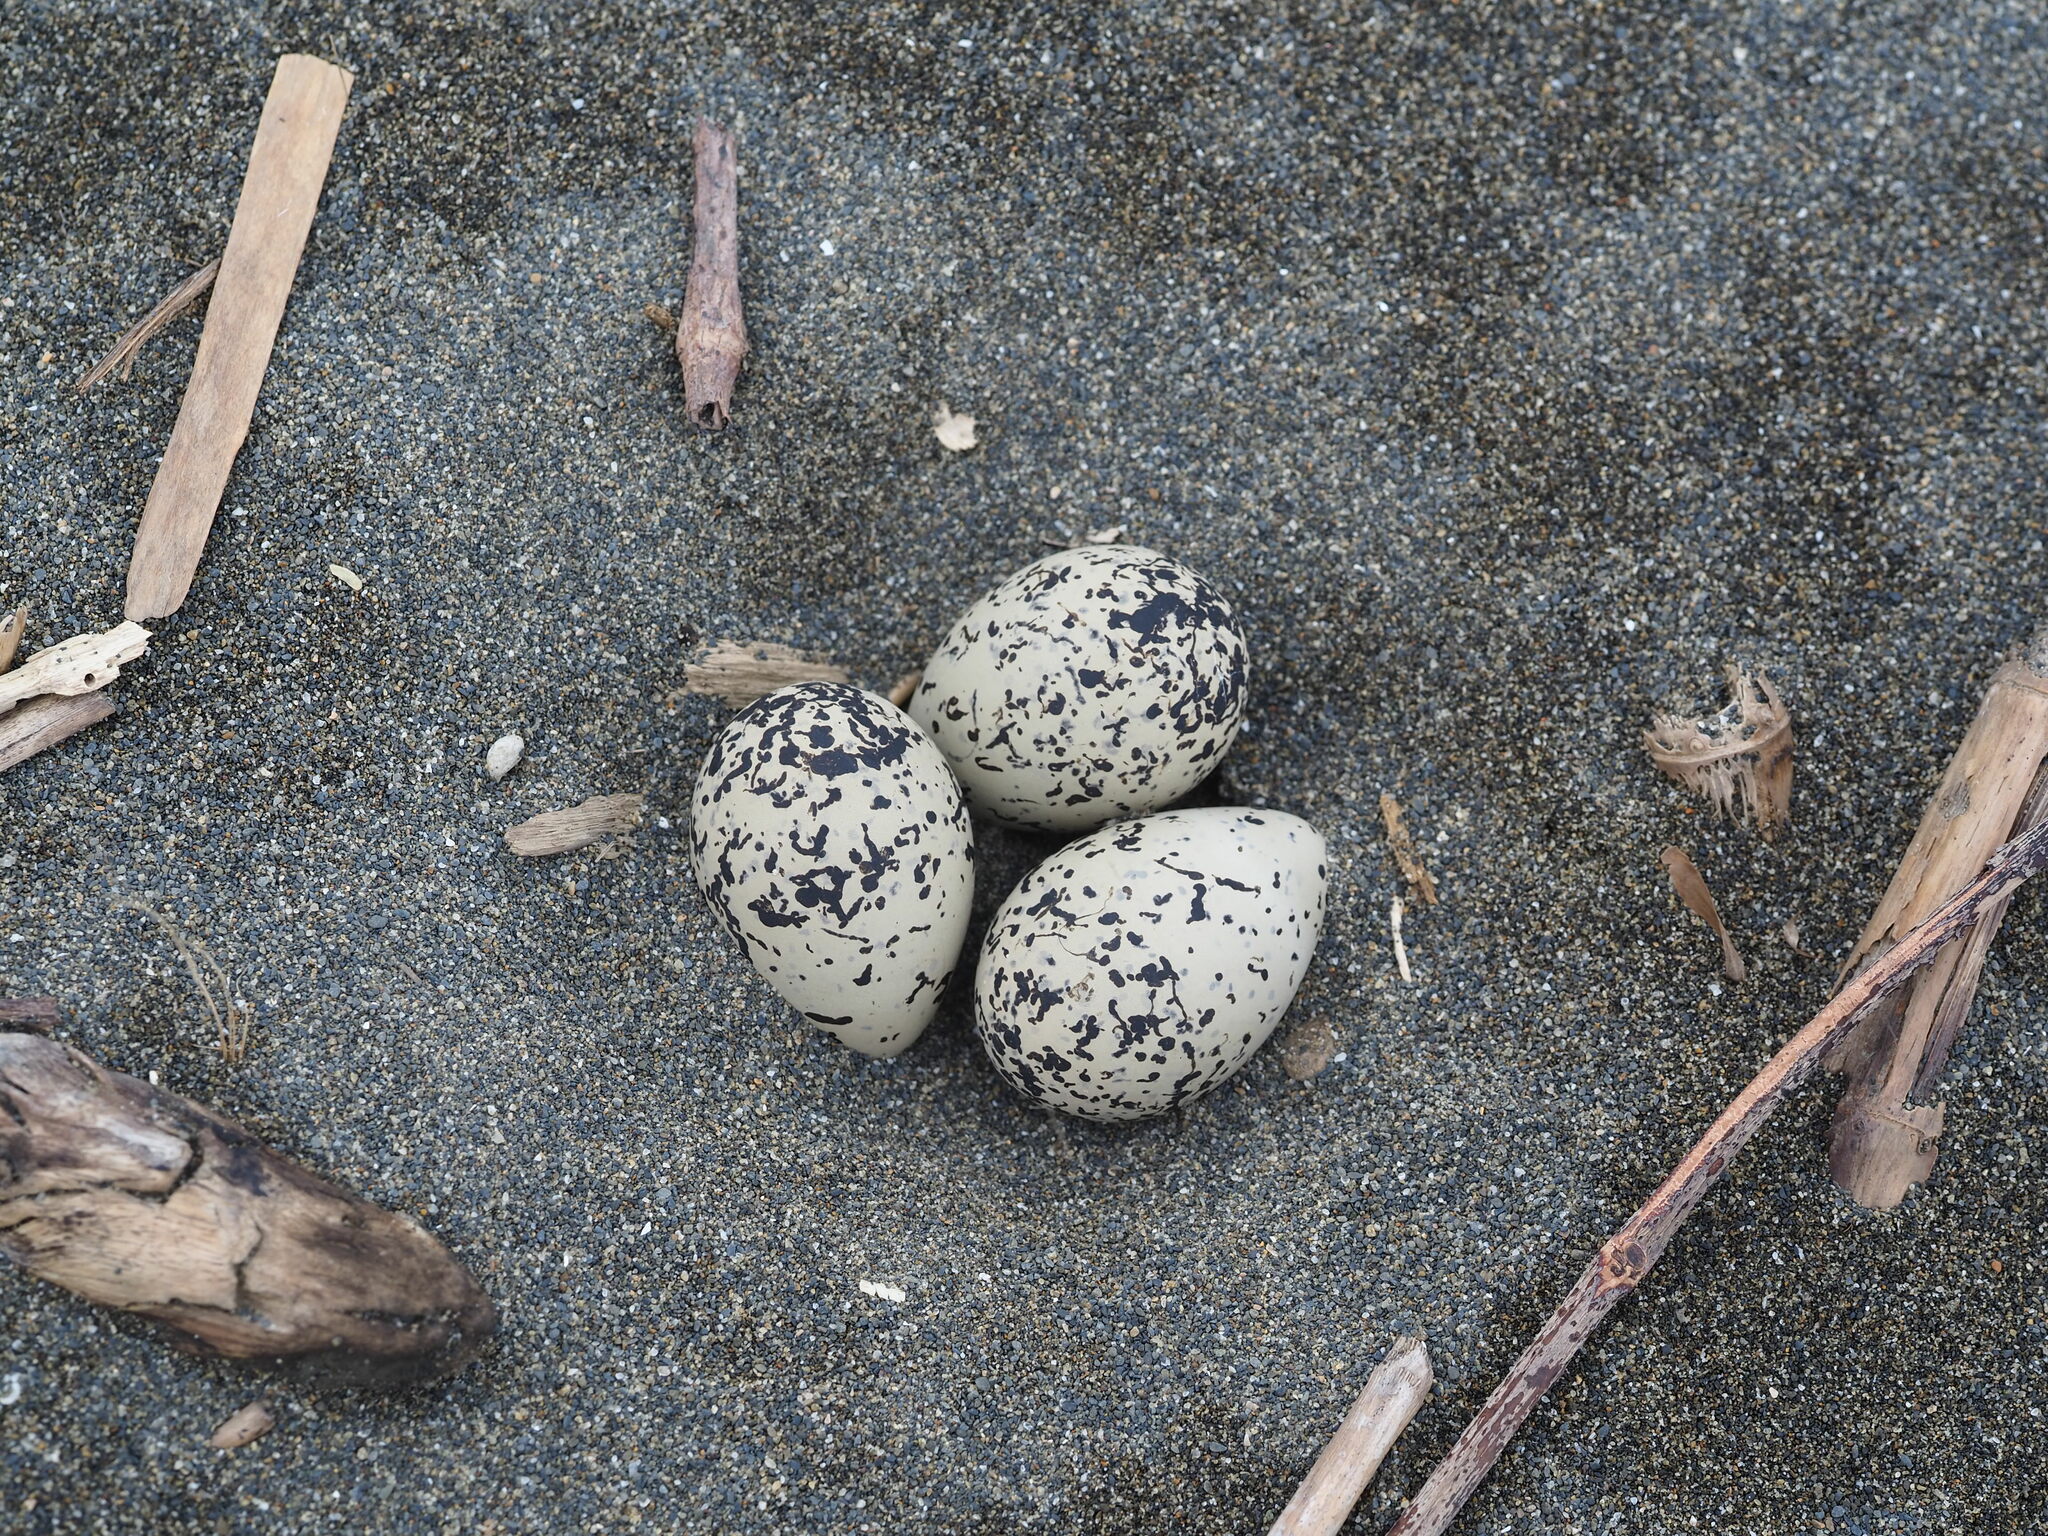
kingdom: Animalia
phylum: Chordata
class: Aves
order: Charadriiformes
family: Charadriidae
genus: Charadrius
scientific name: Charadrius alexandrinus
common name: Kentish plover
